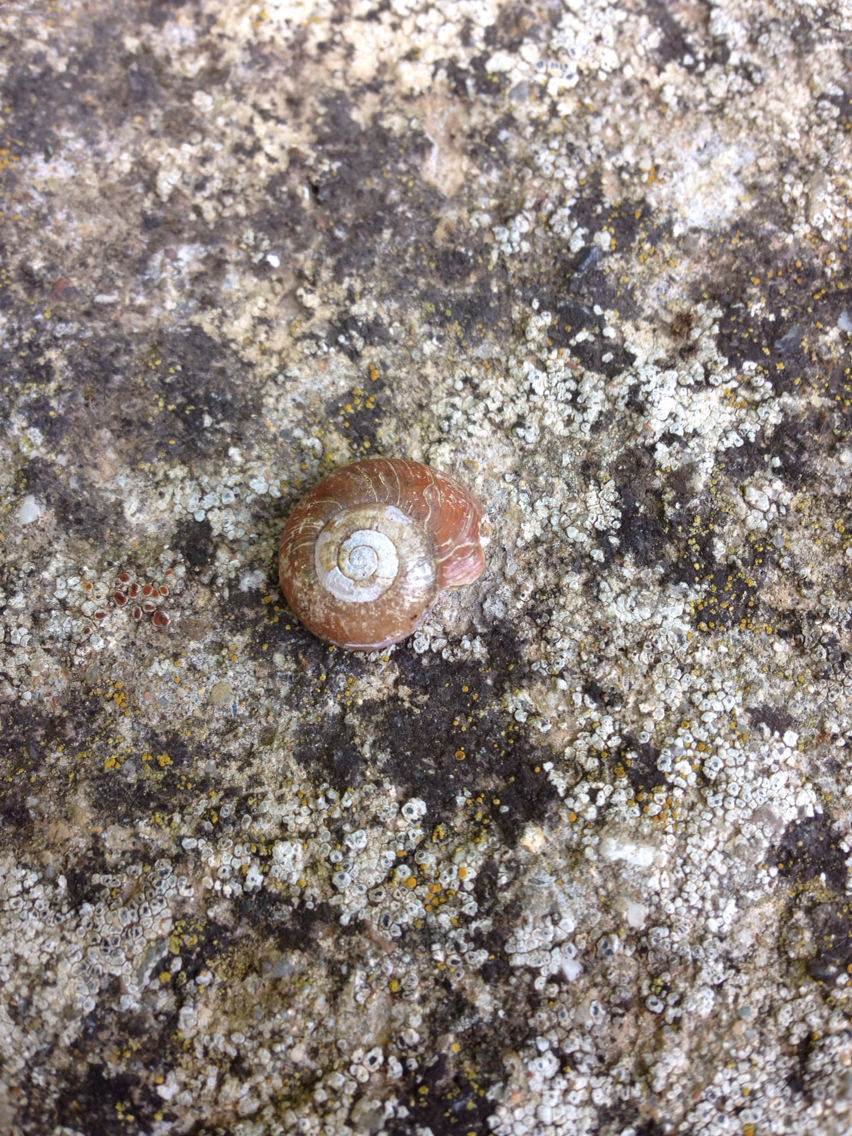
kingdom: Animalia
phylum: Mollusca
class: Gastropoda
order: Stylommatophora
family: Gastrodontidae
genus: Retinella
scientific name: Retinella olivetorum
